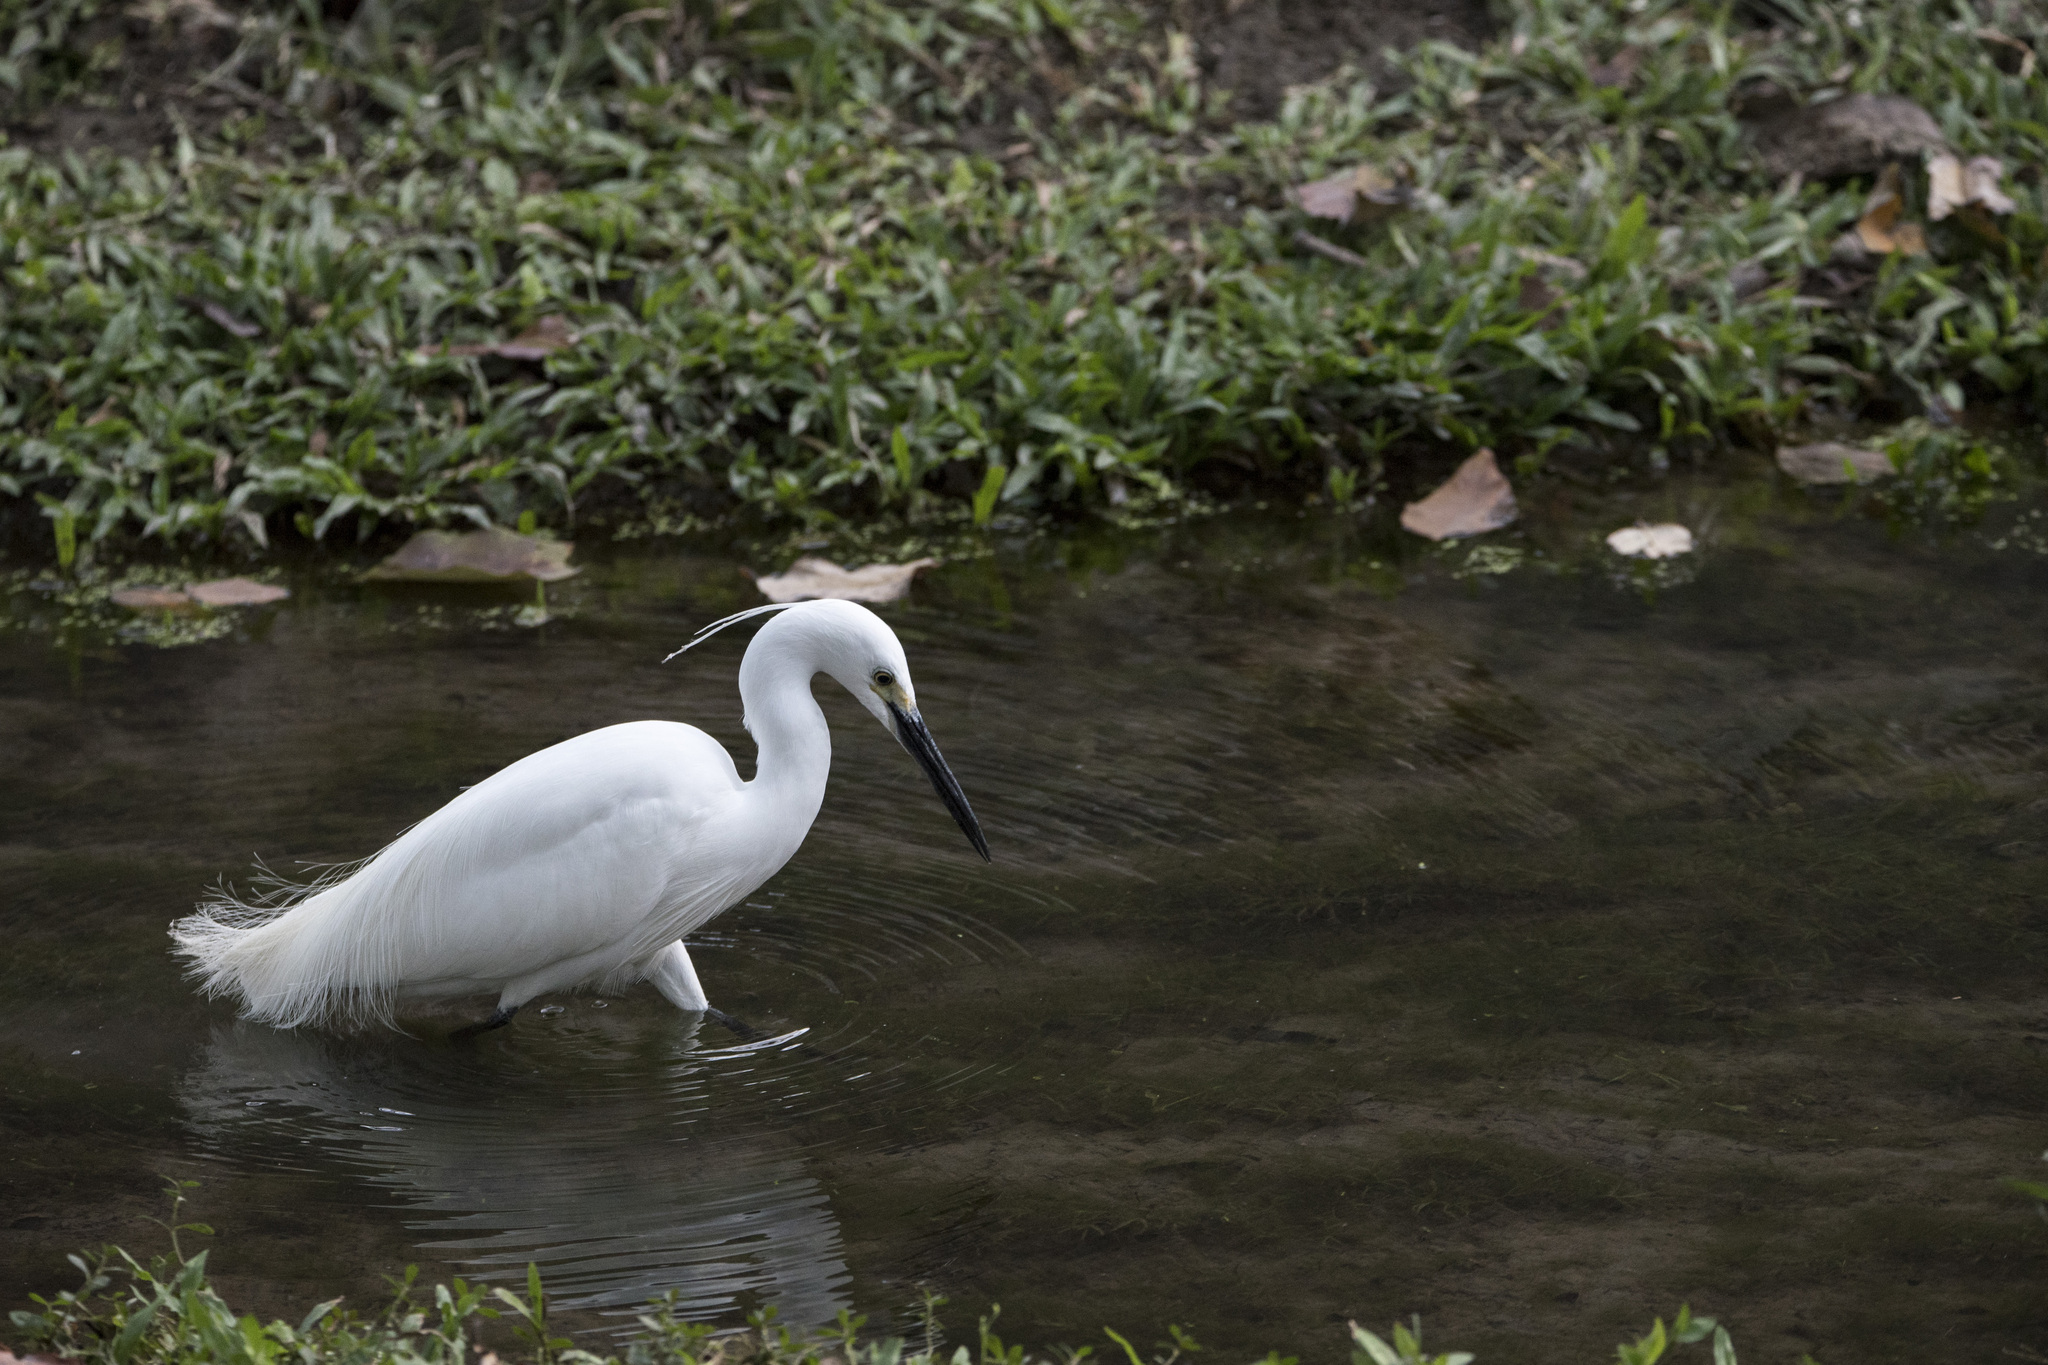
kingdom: Animalia
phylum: Chordata
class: Aves
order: Pelecaniformes
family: Ardeidae
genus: Egretta
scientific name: Egretta garzetta
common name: Little egret
